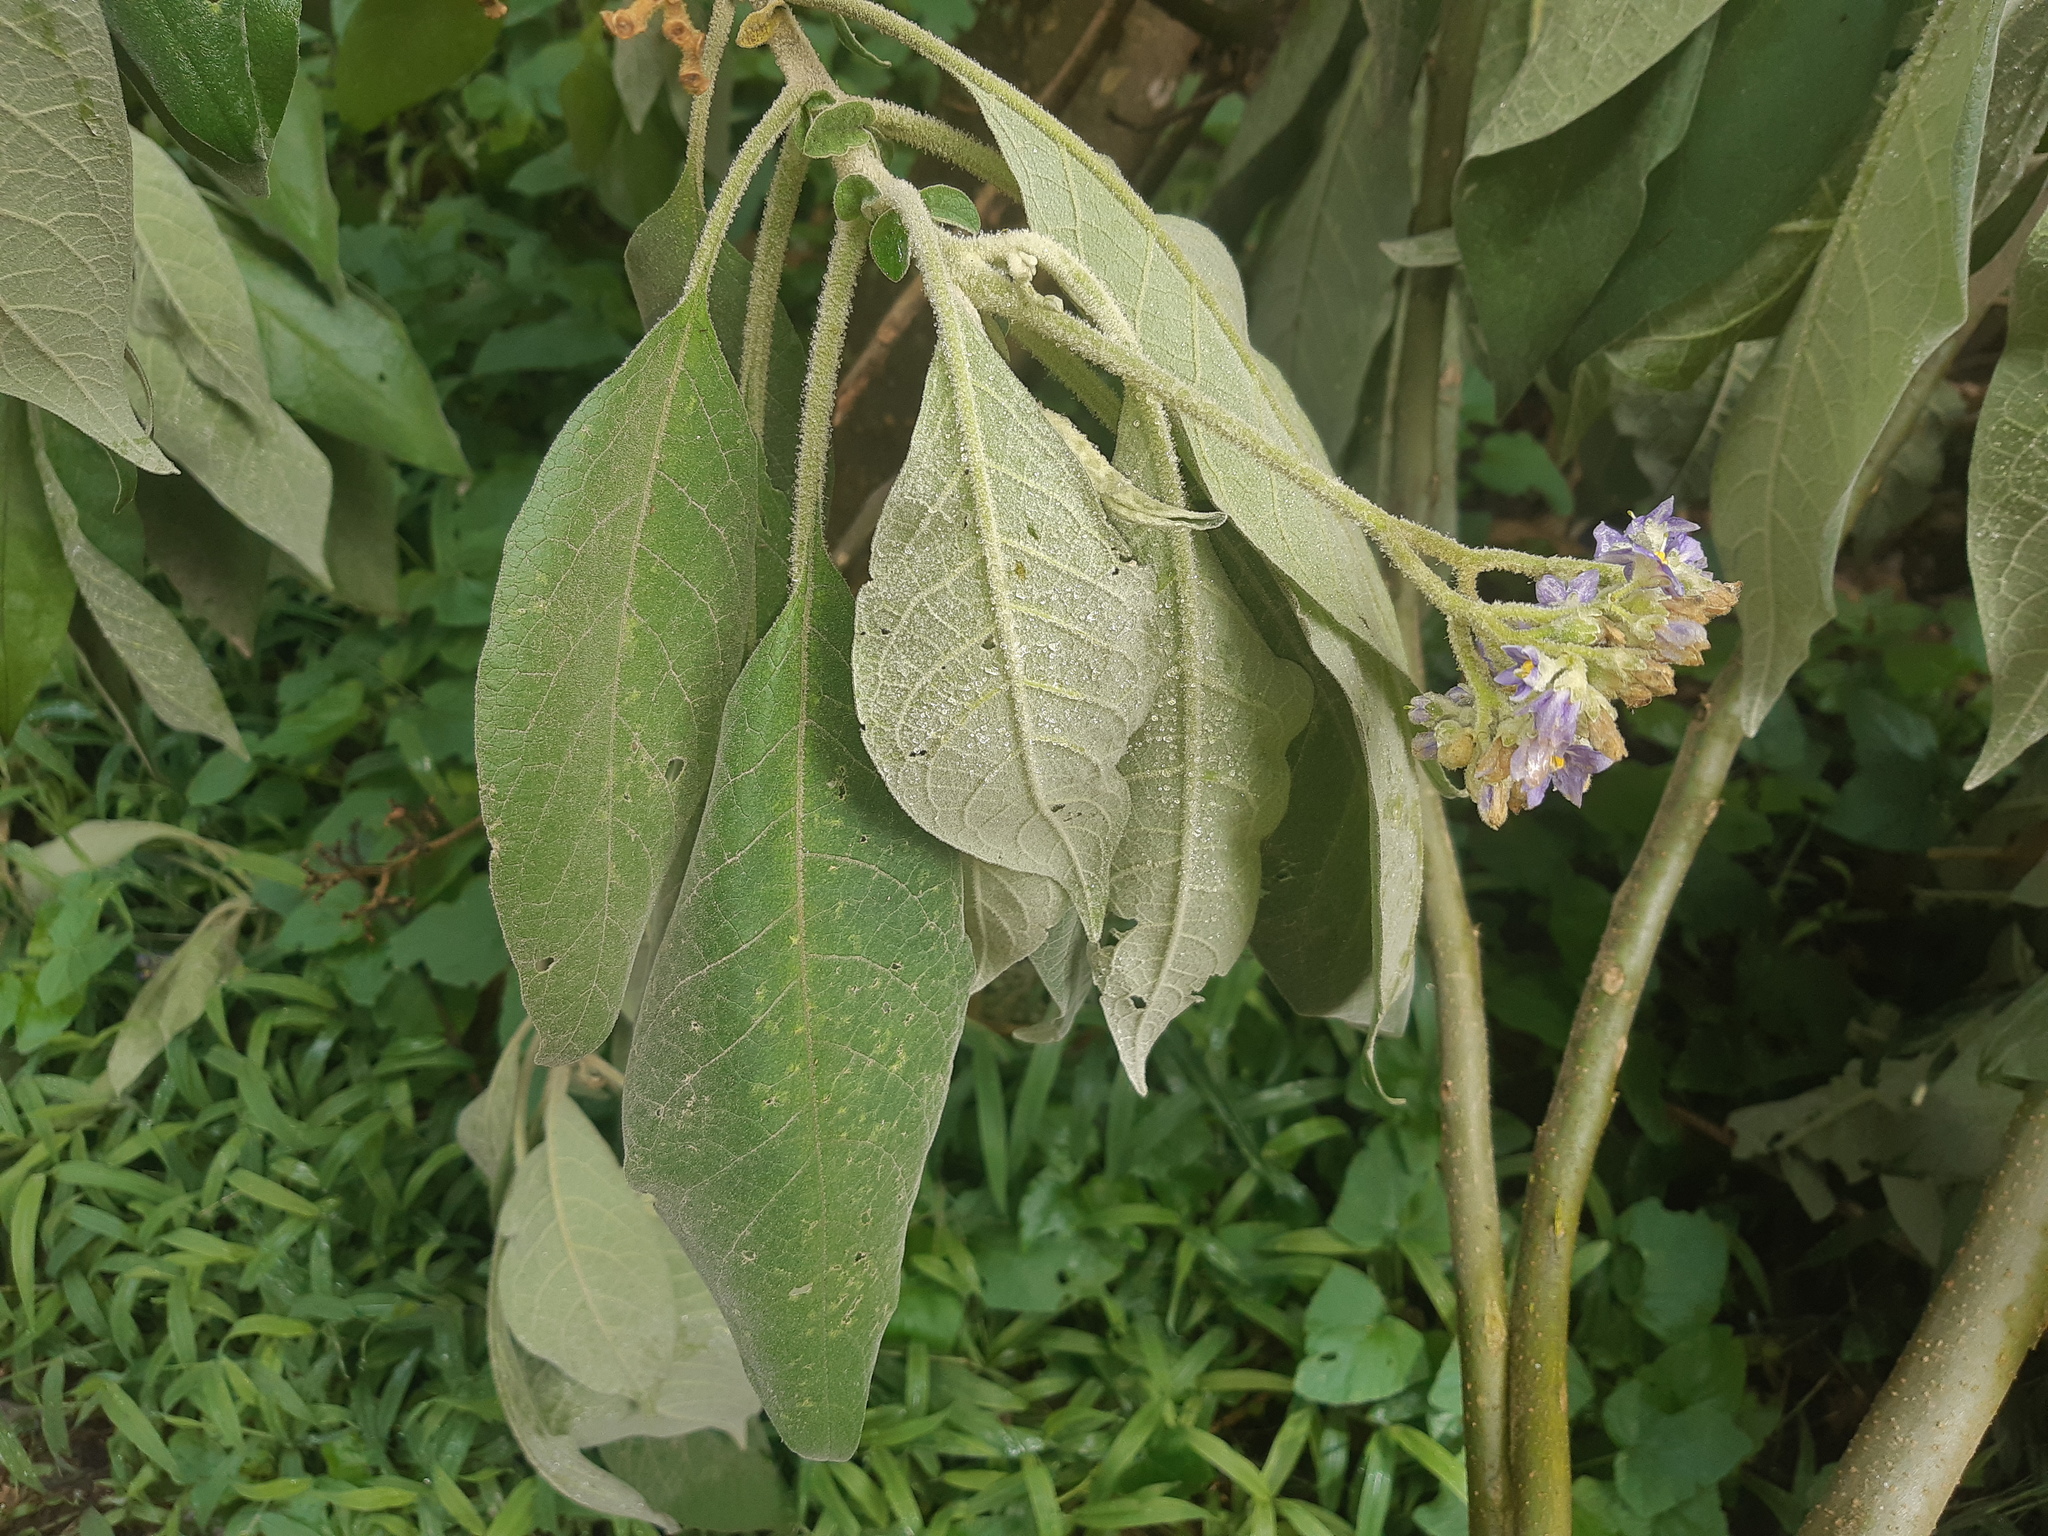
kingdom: Plantae
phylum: Tracheophyta
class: Magnoliopsida
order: Solanales
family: Solanaceae
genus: Solanum
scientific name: Solanum mauritianum
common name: Earleaf nightshade
